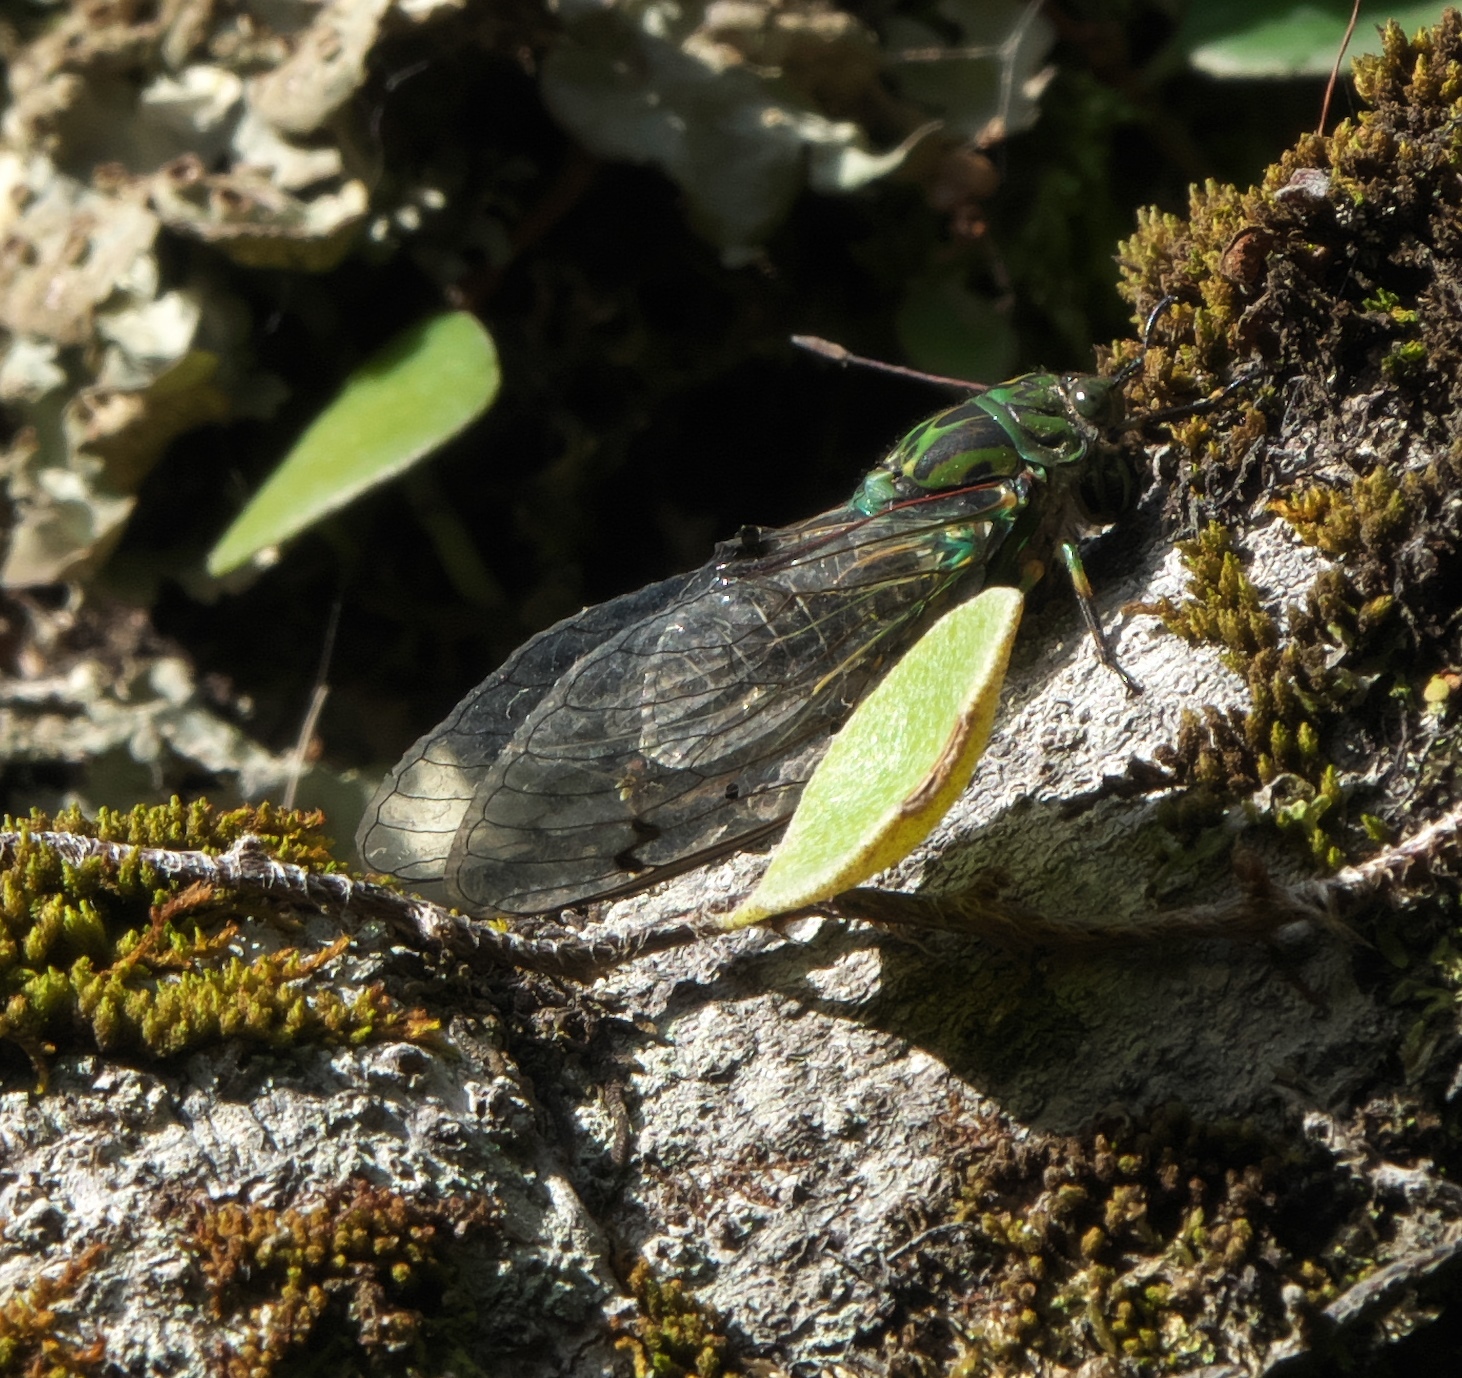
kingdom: Animalia
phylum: Arthropoda
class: Insecta
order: Hemiptera
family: Cicadidae
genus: Amphipsalta
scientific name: Amphipsalta zelandica
